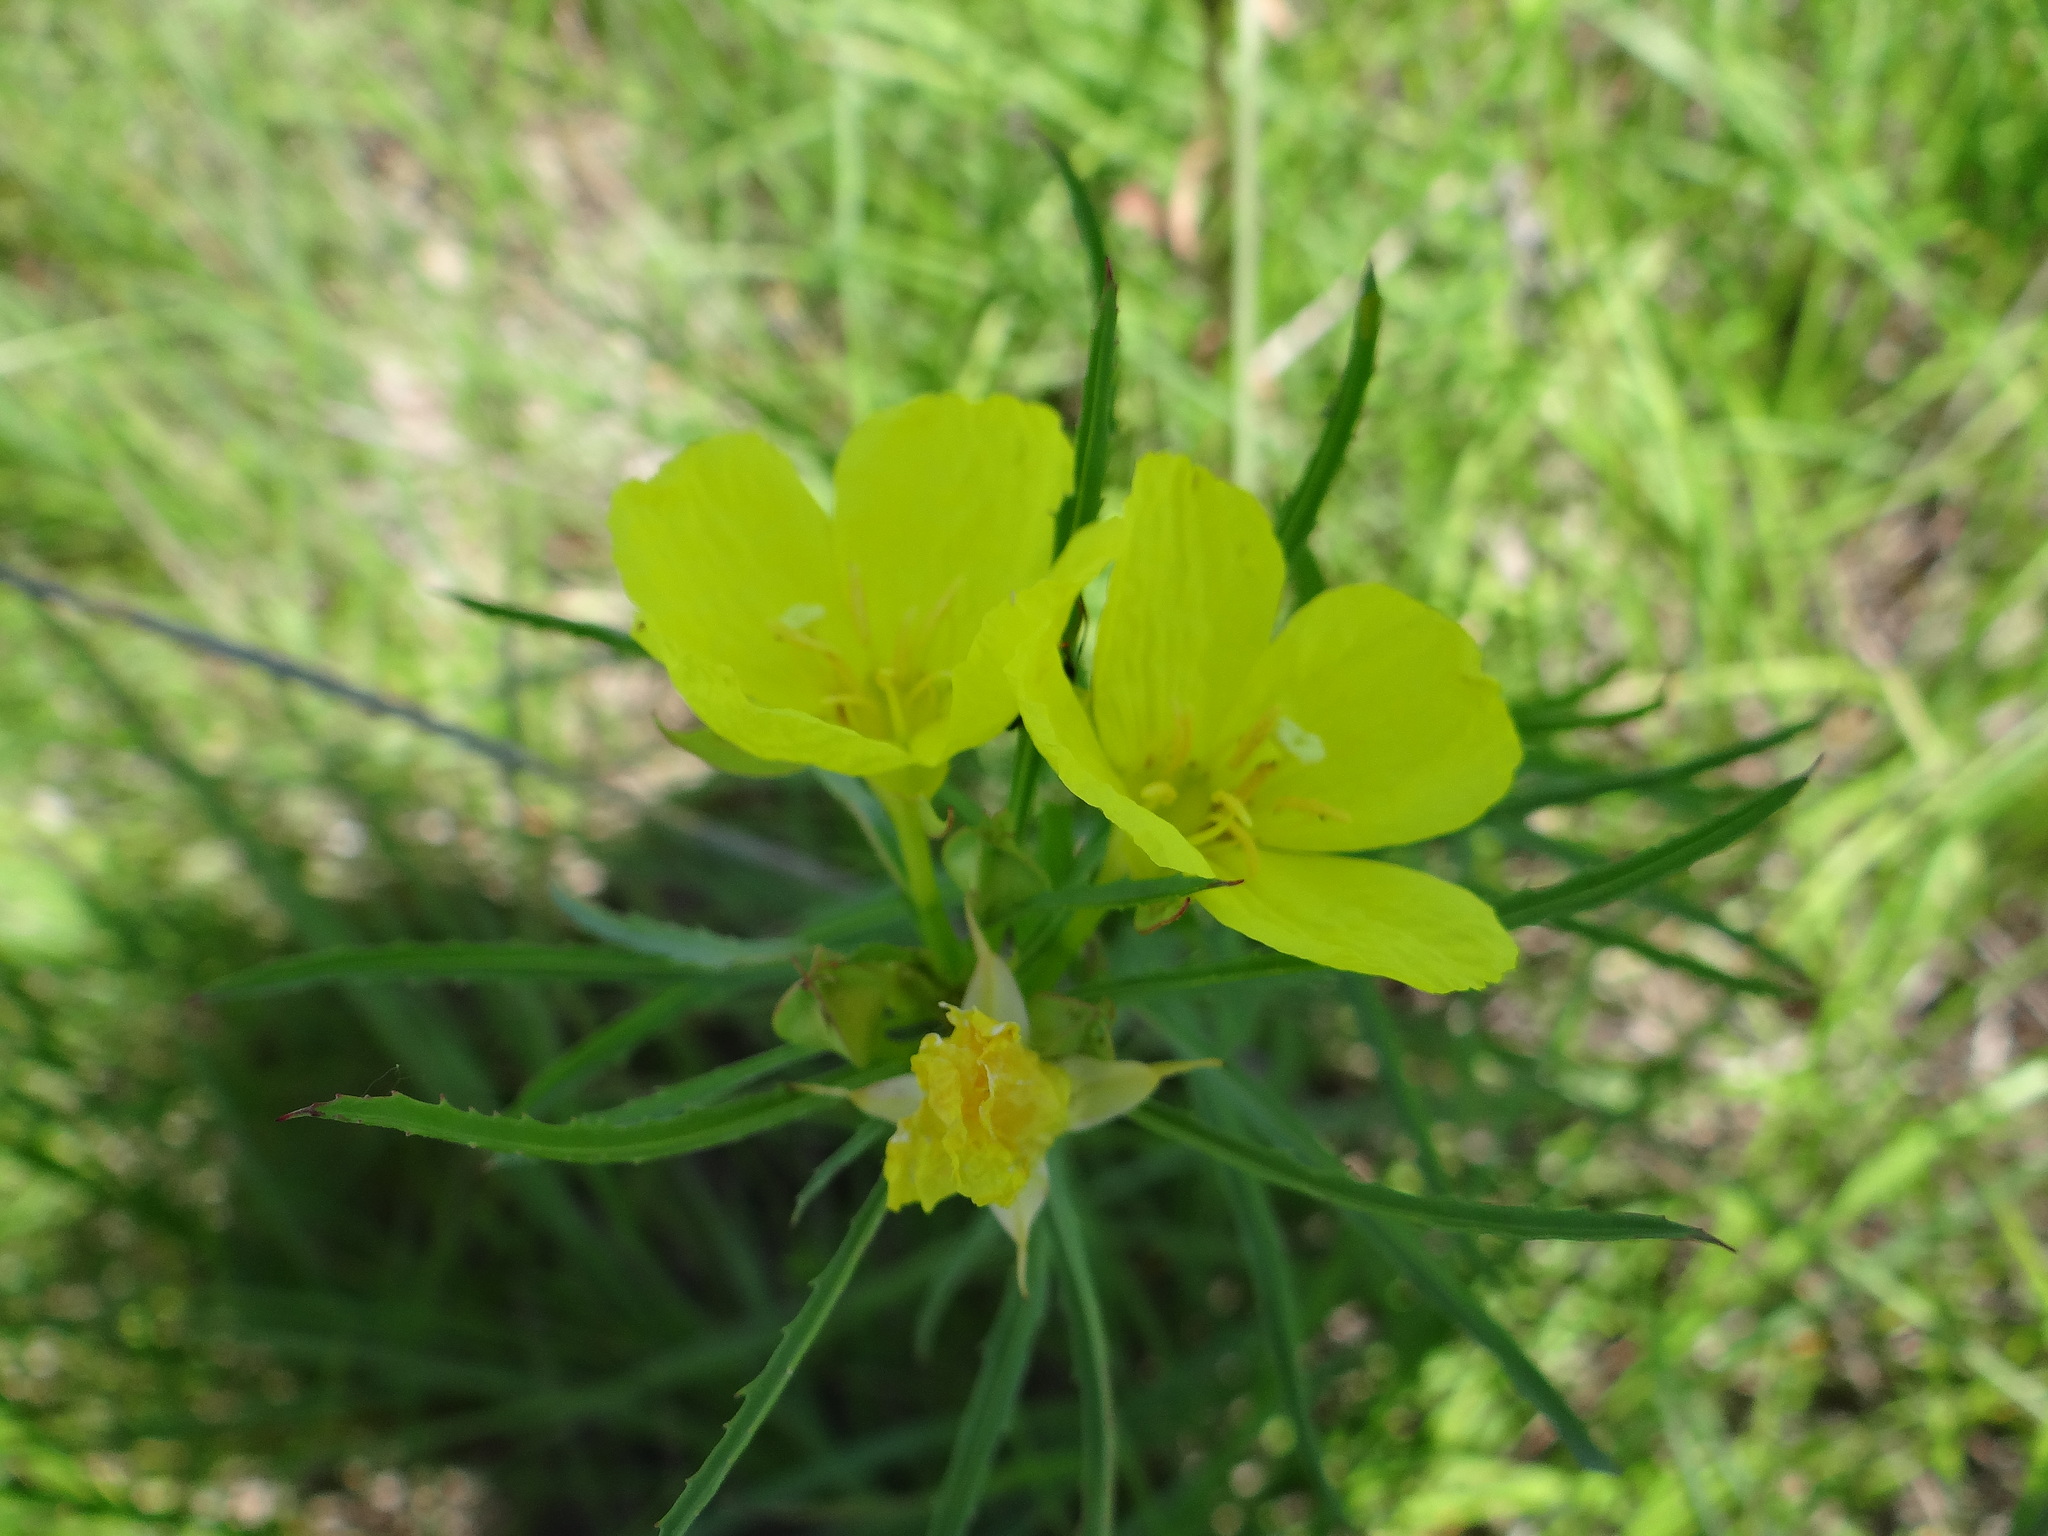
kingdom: Plantae
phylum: Tracheophyta
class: Magnoliopsida
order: Myrtales
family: Onagraceae
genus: Oenothera
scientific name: Oenothera
